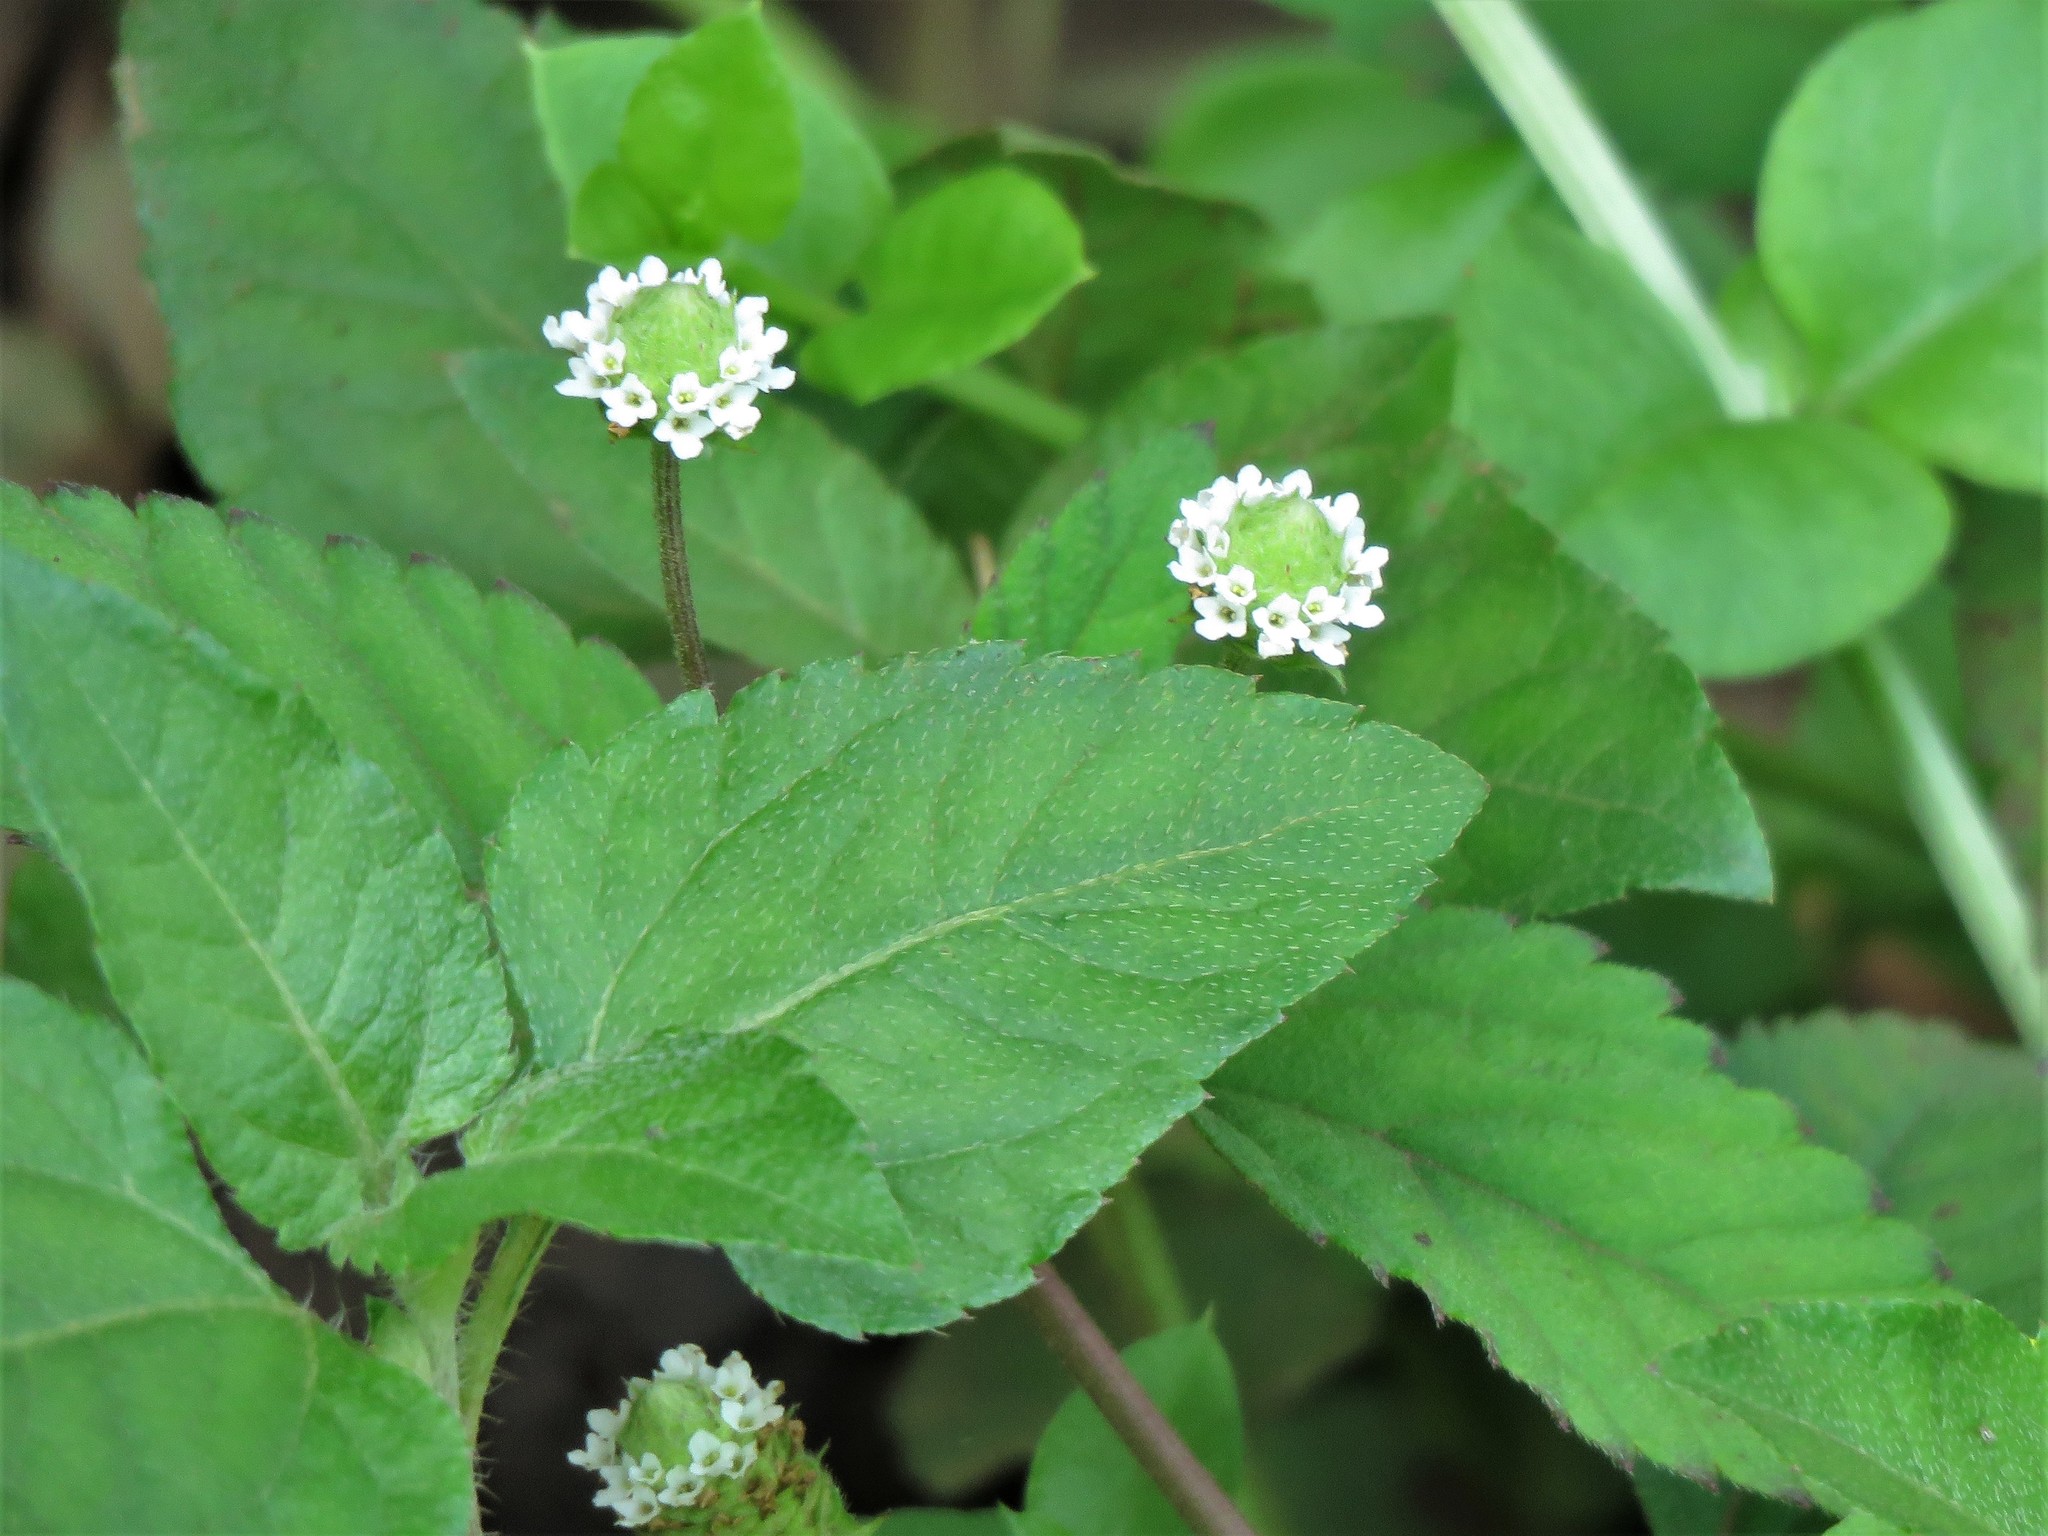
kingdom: Plantae
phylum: Tracheophyta
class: Magnoliopsida
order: Lamiales
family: Verbenaceae
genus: Lippia
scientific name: Lippia dulcis
